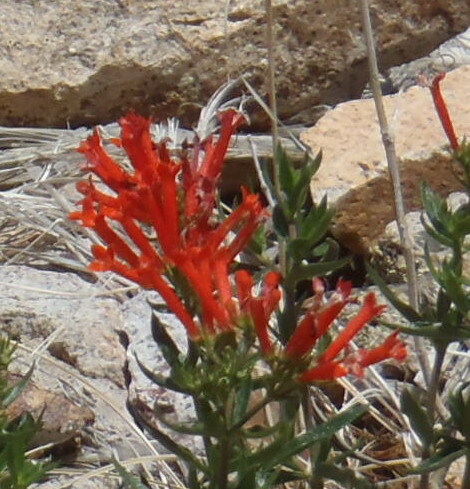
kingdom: Plantae
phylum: Tracheophyta
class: Magnoliopsida
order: Gentianales
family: Rubiaceae
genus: Bouvardia
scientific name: Bouvardia ternifolia
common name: Scarlet bouvardia
